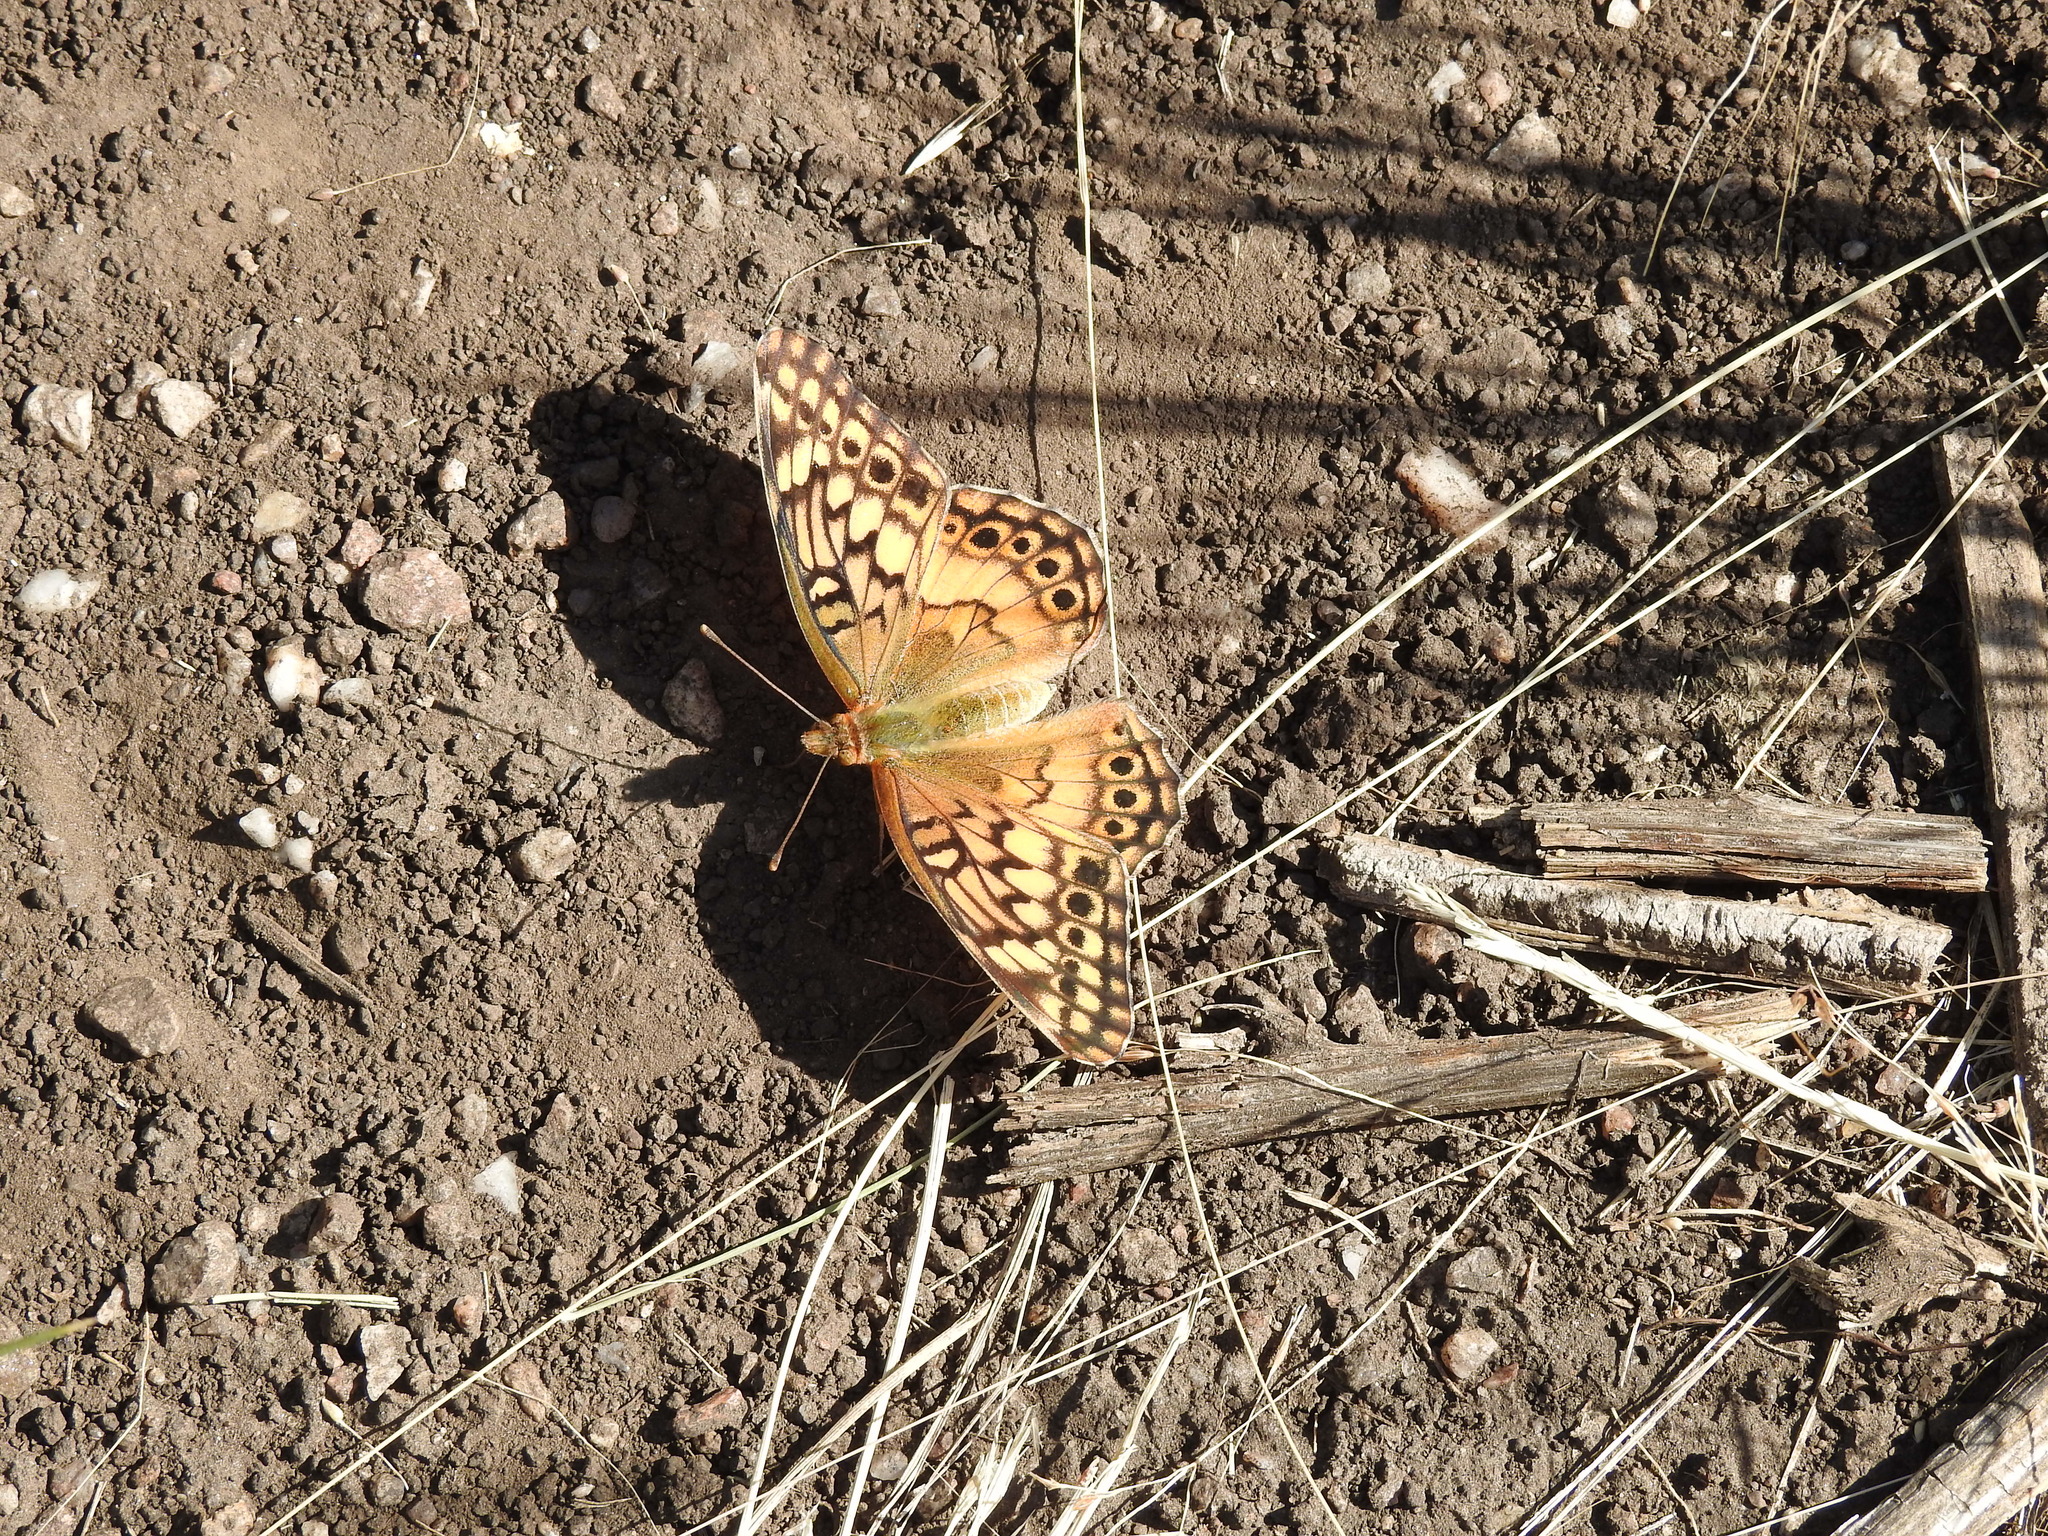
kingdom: Animalia
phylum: Arthropoda
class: Insecta
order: Lepidoptera
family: Nymphalidae
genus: Euptoieta
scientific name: Euptoieta hortensia
